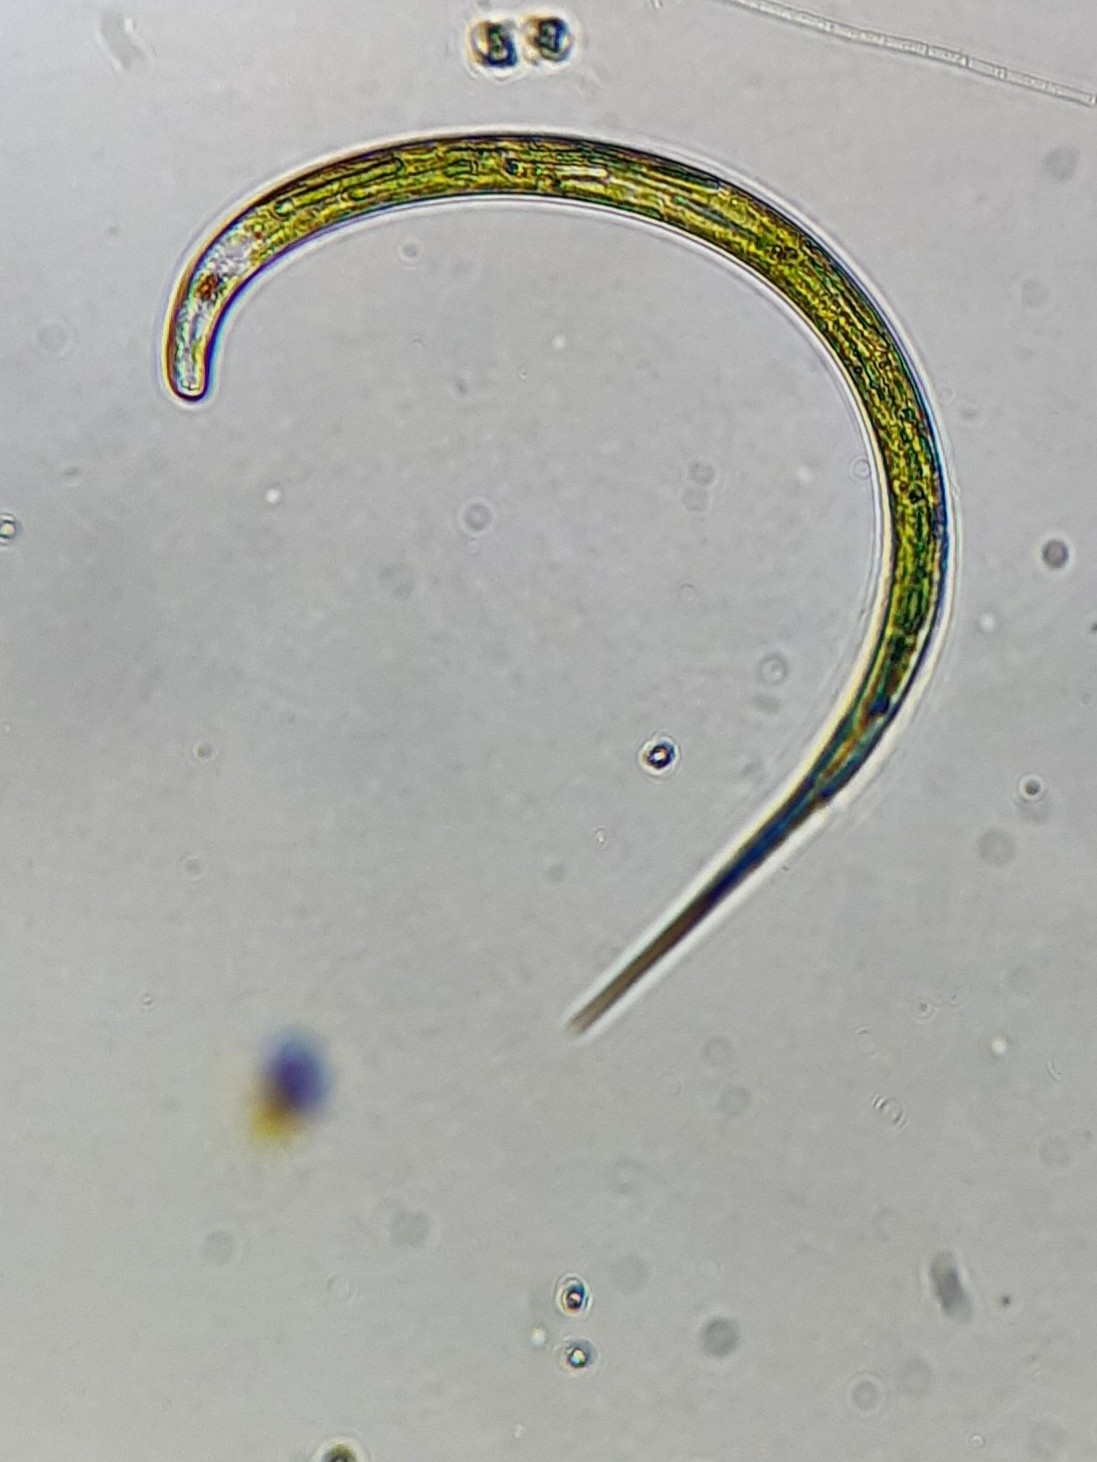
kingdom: Protozoa
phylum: Euglenozoa
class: Euglenoidea
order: Euglenida
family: Phacidae
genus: Lepocinclis
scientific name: Lepocinclis acus
